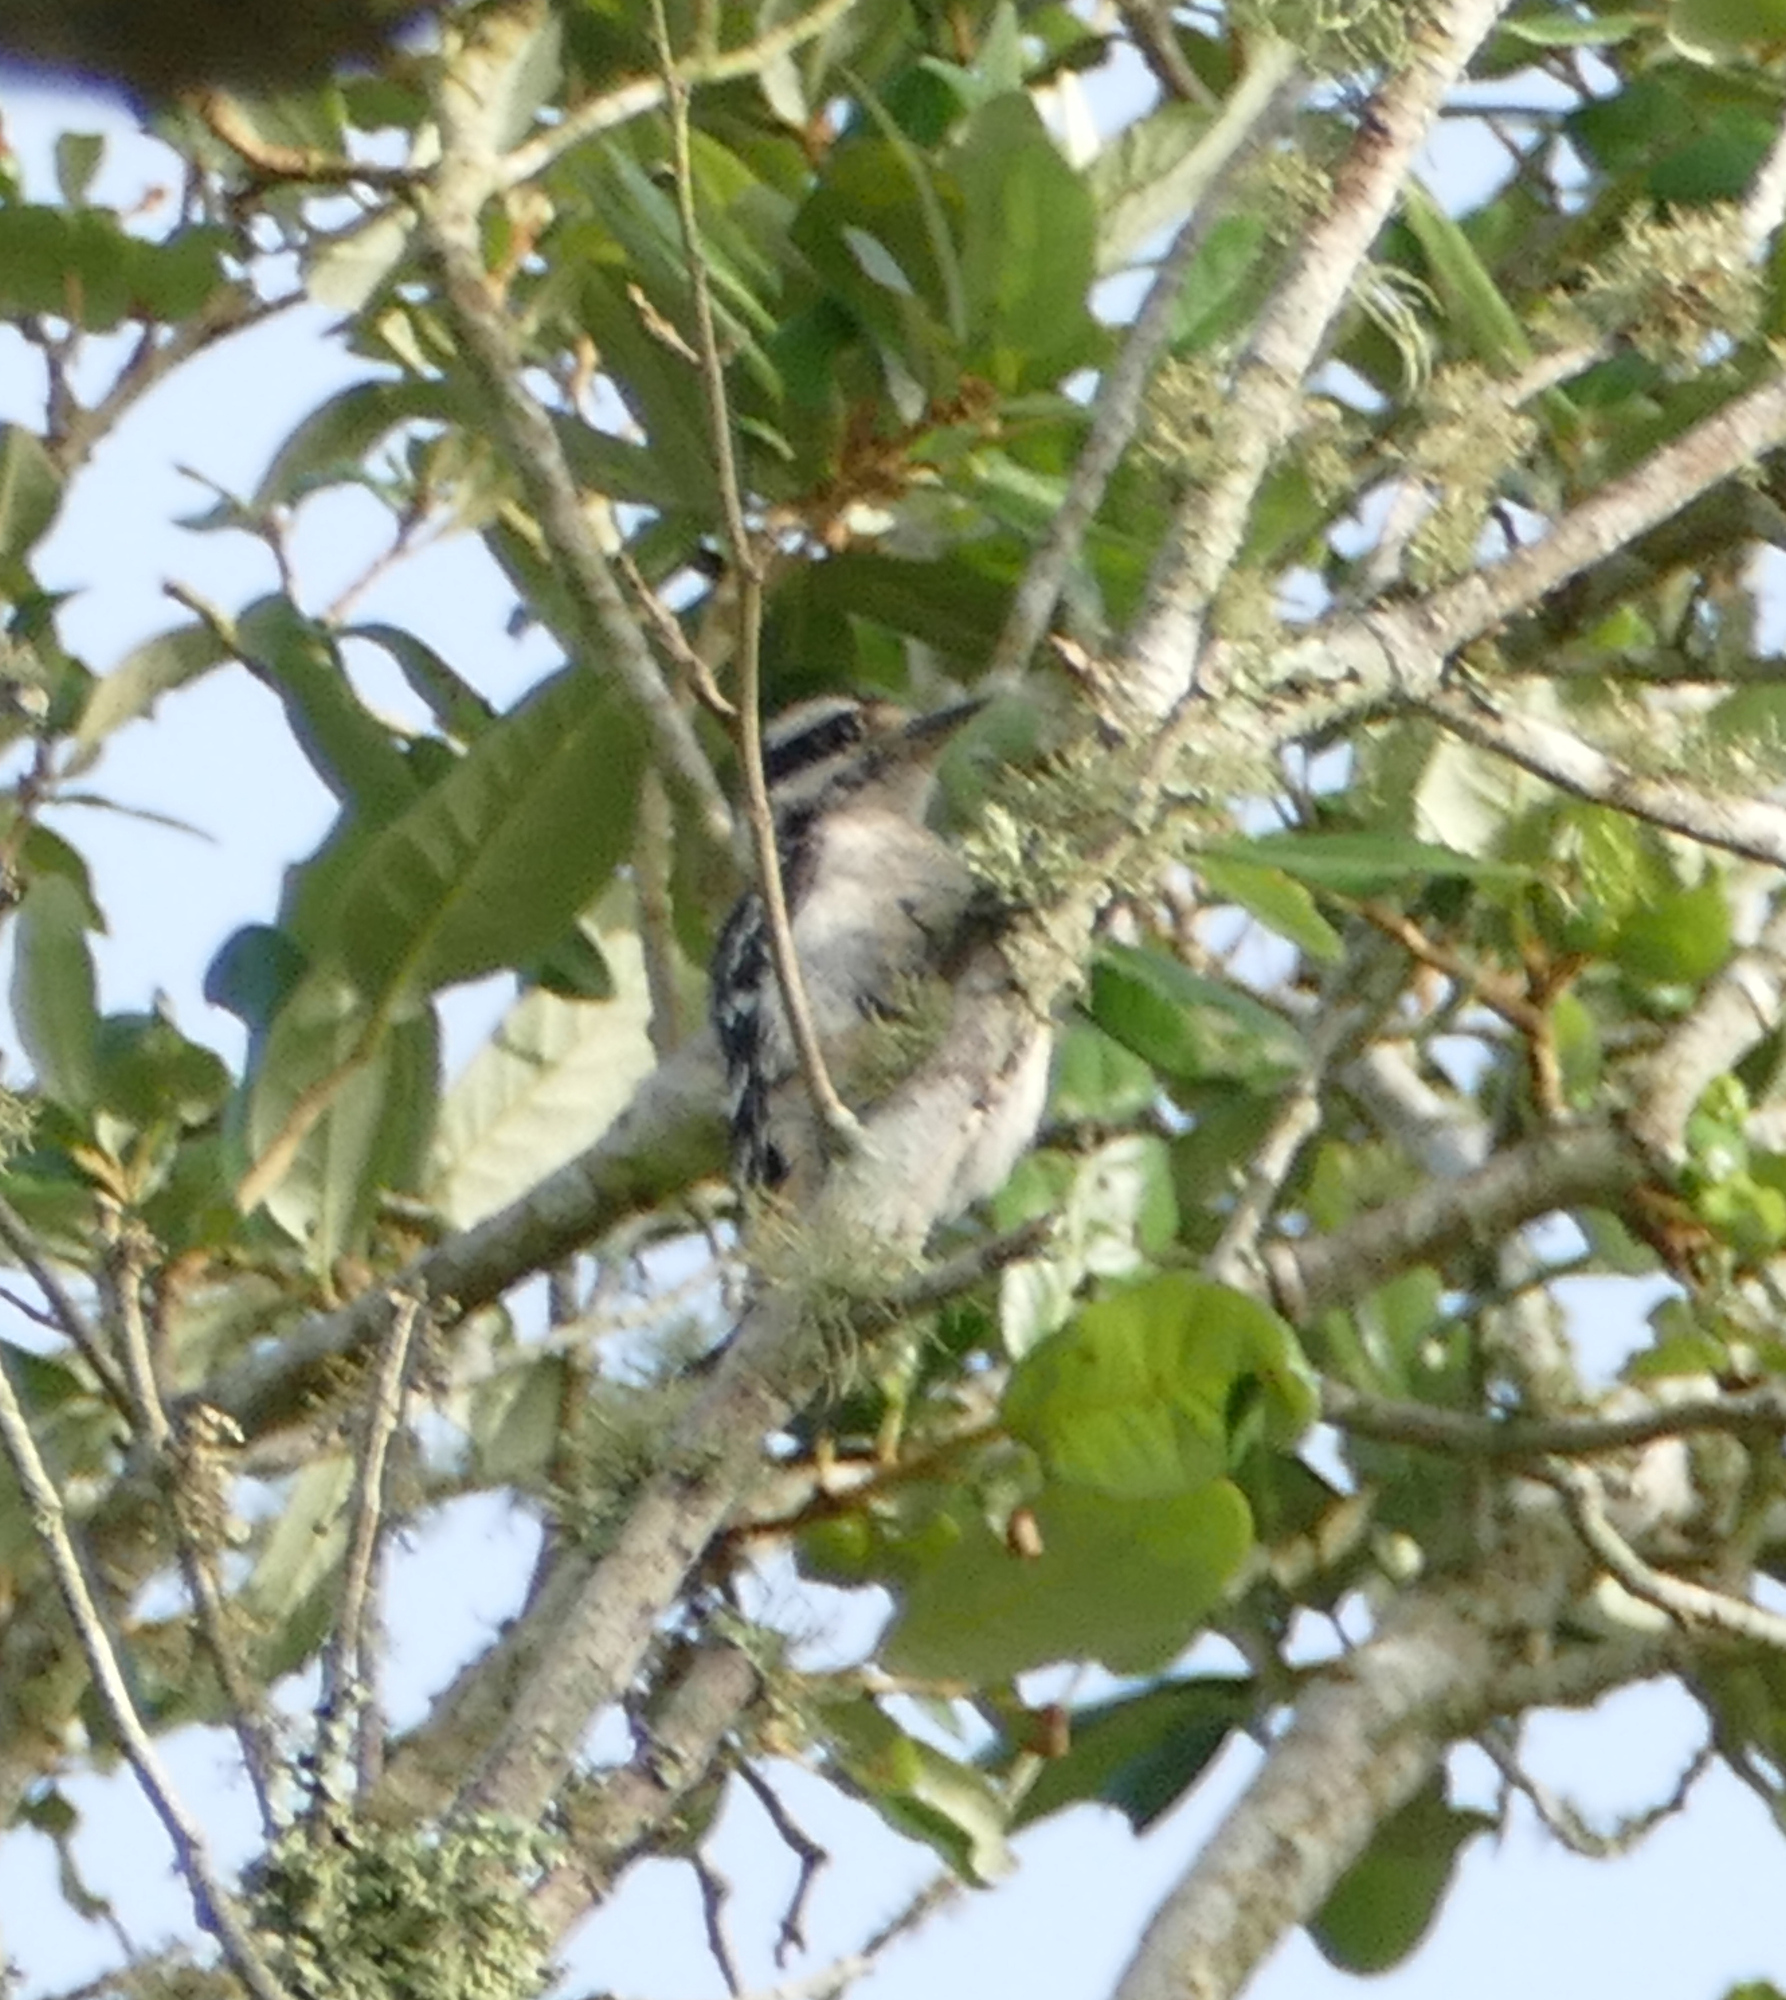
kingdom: Animalia
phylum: Chordata
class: Aves
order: Piciformes
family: Picidae
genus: Dryobates
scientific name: Dryobates pubescens
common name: Downy woodpecker
